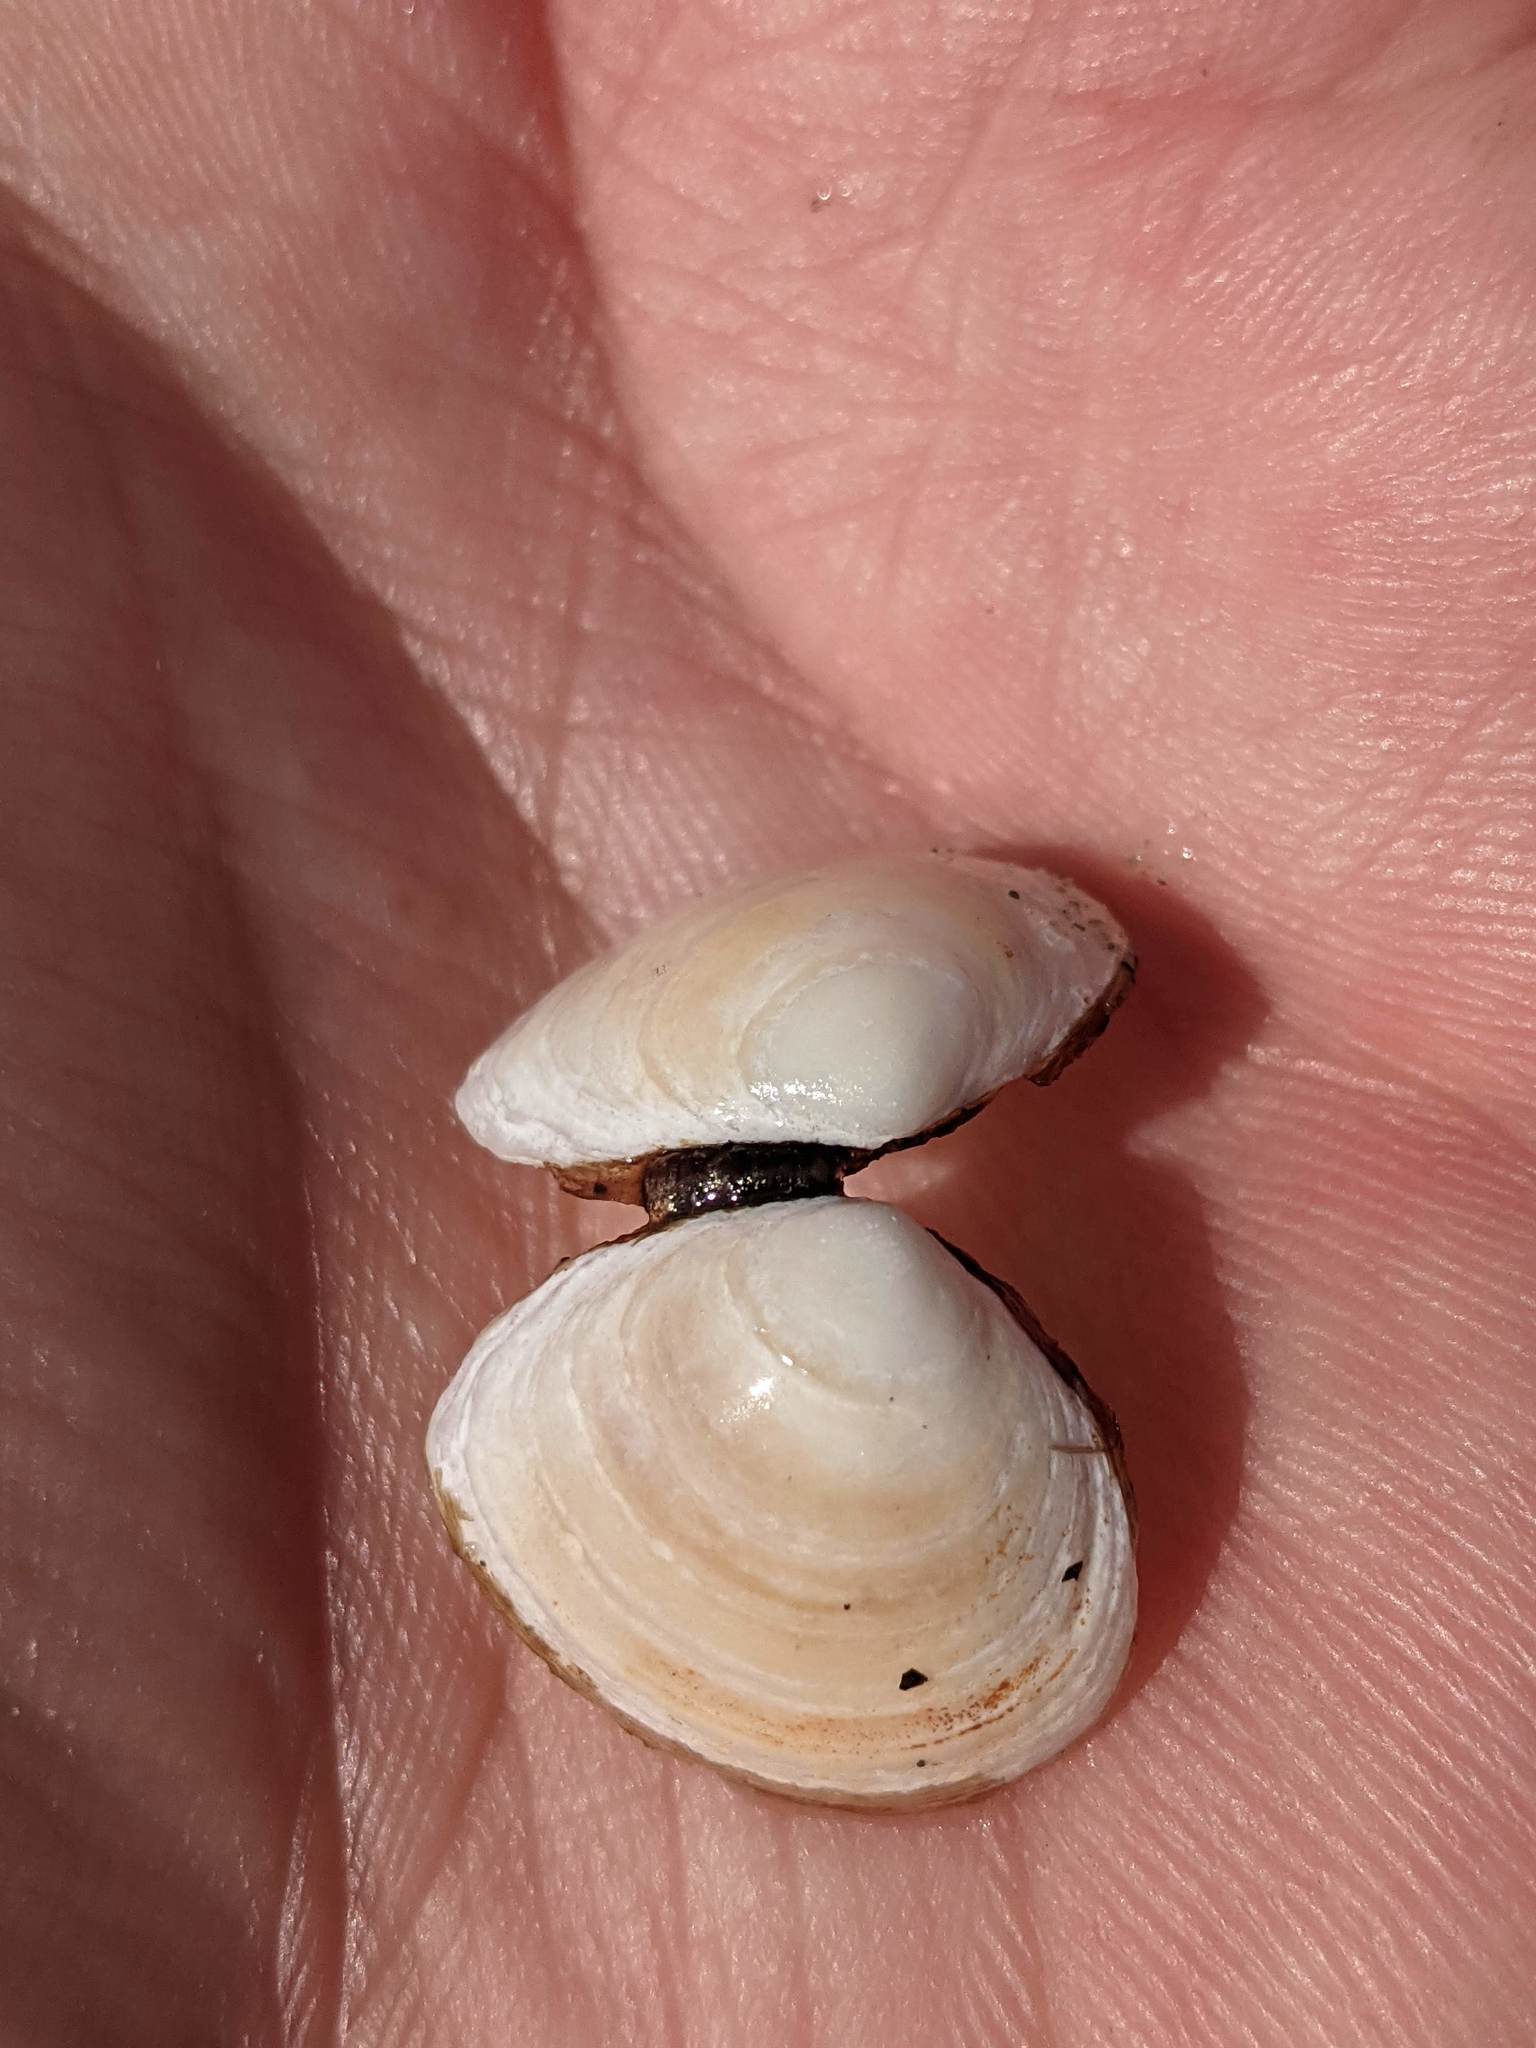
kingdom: Animalia
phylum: Mollusca
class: Bivalvia
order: Cardiida
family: Tellinidae
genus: Macoma
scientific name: Macoma balthica
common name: Baltic tellin
